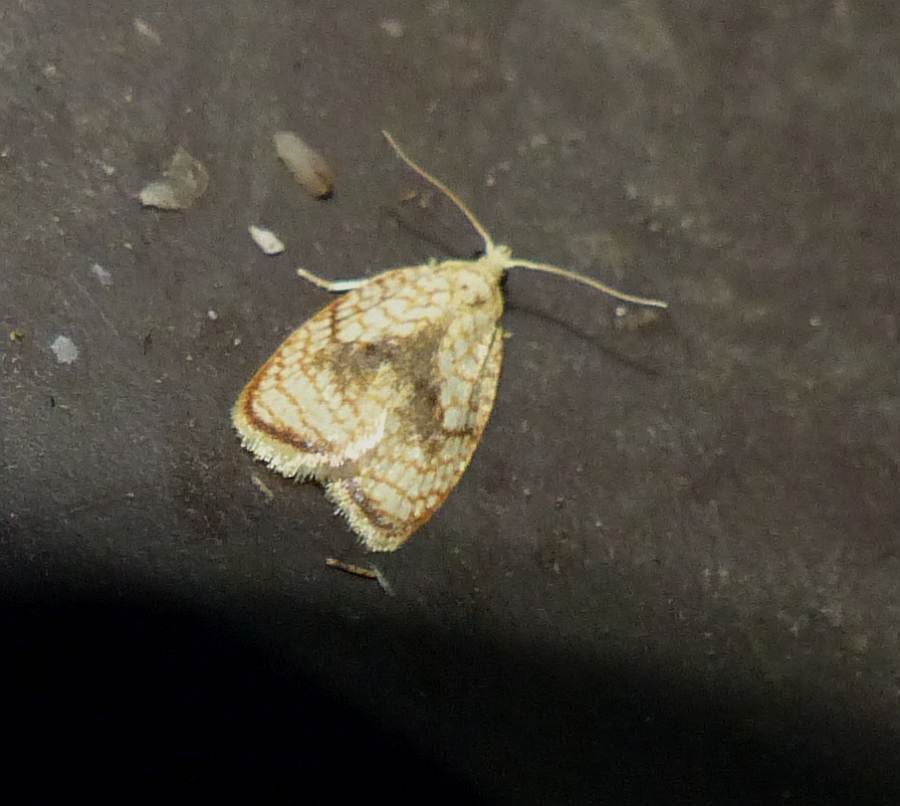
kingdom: Animalia
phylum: Arthropoda
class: Insecta
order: Lepidoptera
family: Tortricidae
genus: Acleris
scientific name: Acleris forsskaleana
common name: Maple button
